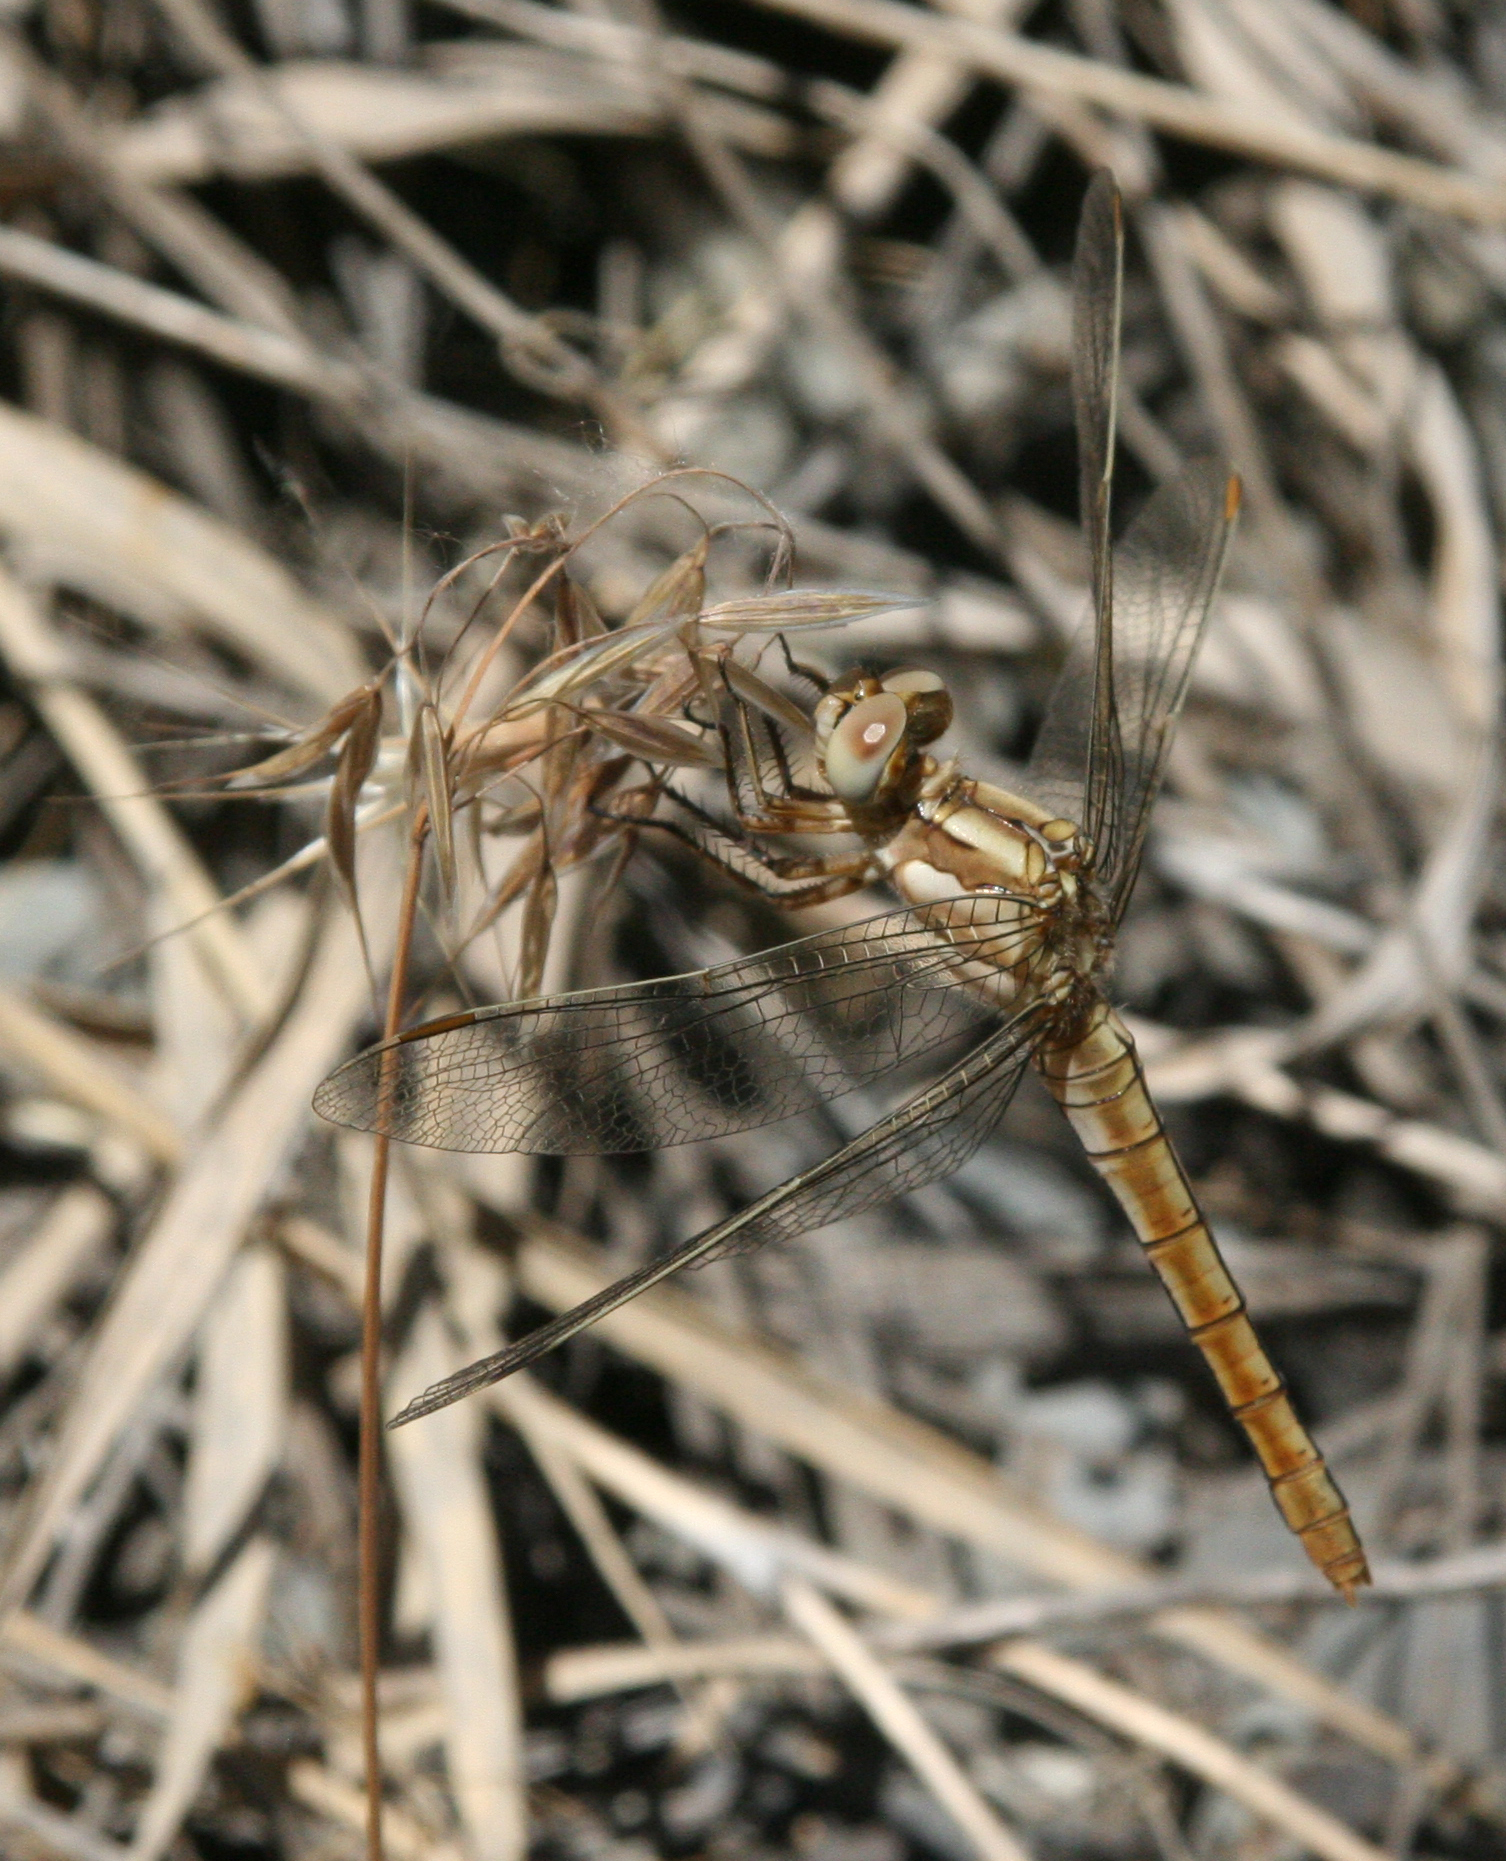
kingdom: Animalia
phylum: Arthropoda
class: Insecta
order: Odonata
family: Libellulidae
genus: Orthetrum
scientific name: Orthetrum brunneum
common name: Southern skimmer
